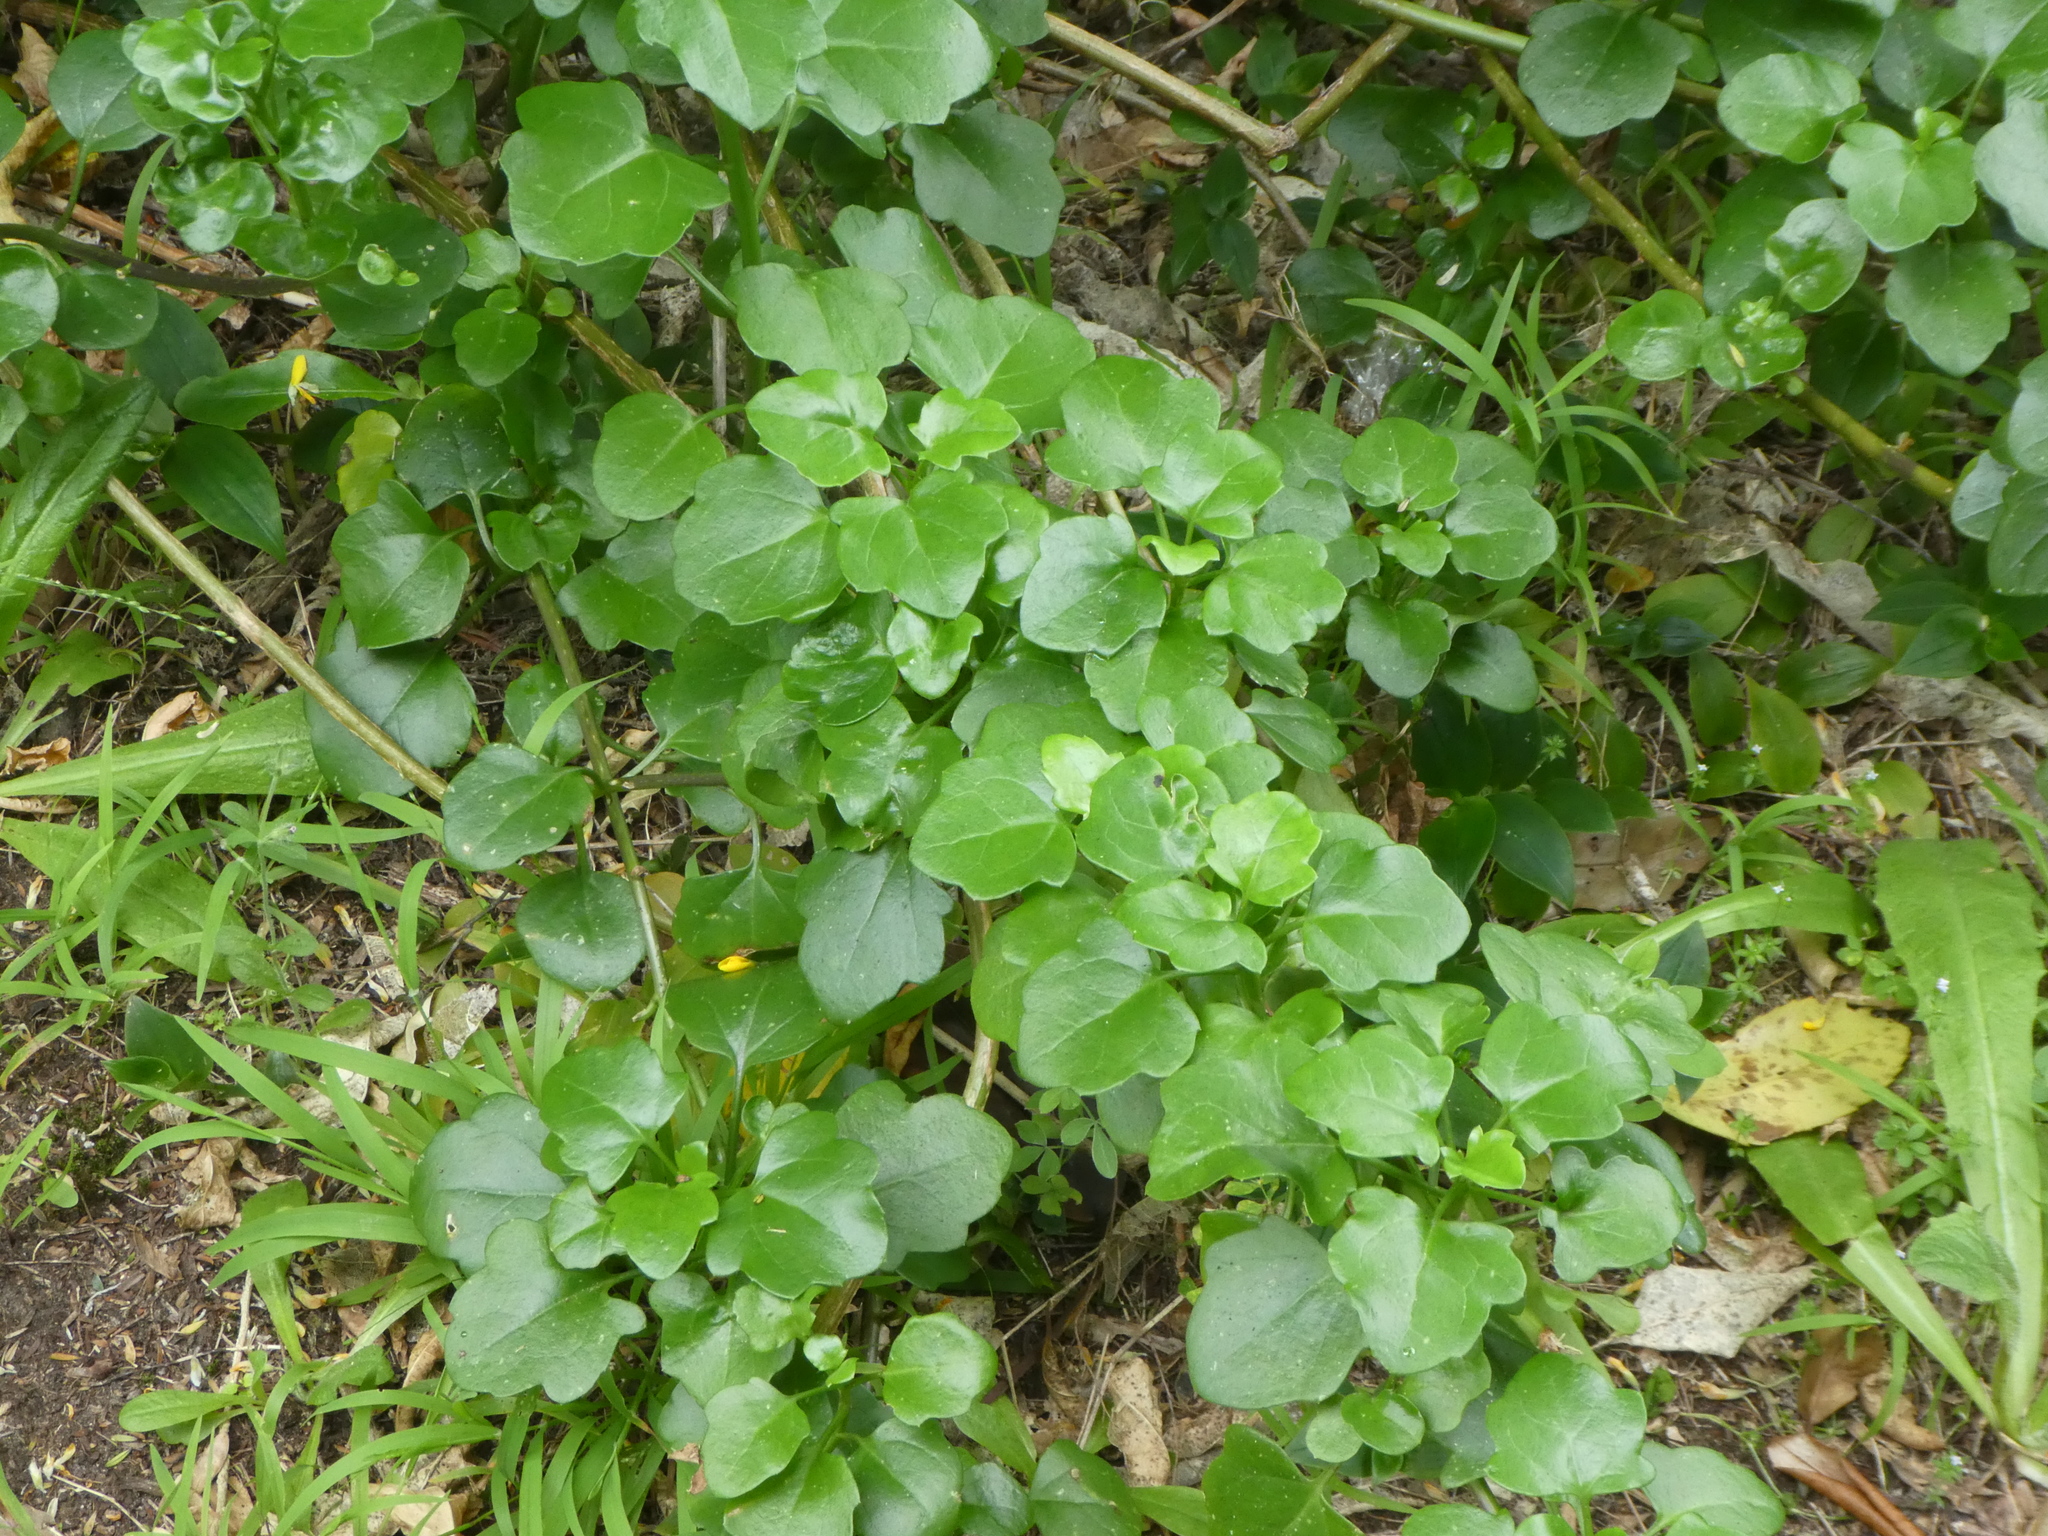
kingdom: Plantae
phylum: Tracheophyta
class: Magnoliopsida
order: Asterales
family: Asteraceae
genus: Senecio
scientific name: Senecio angulatus
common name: Climbing groundsel
